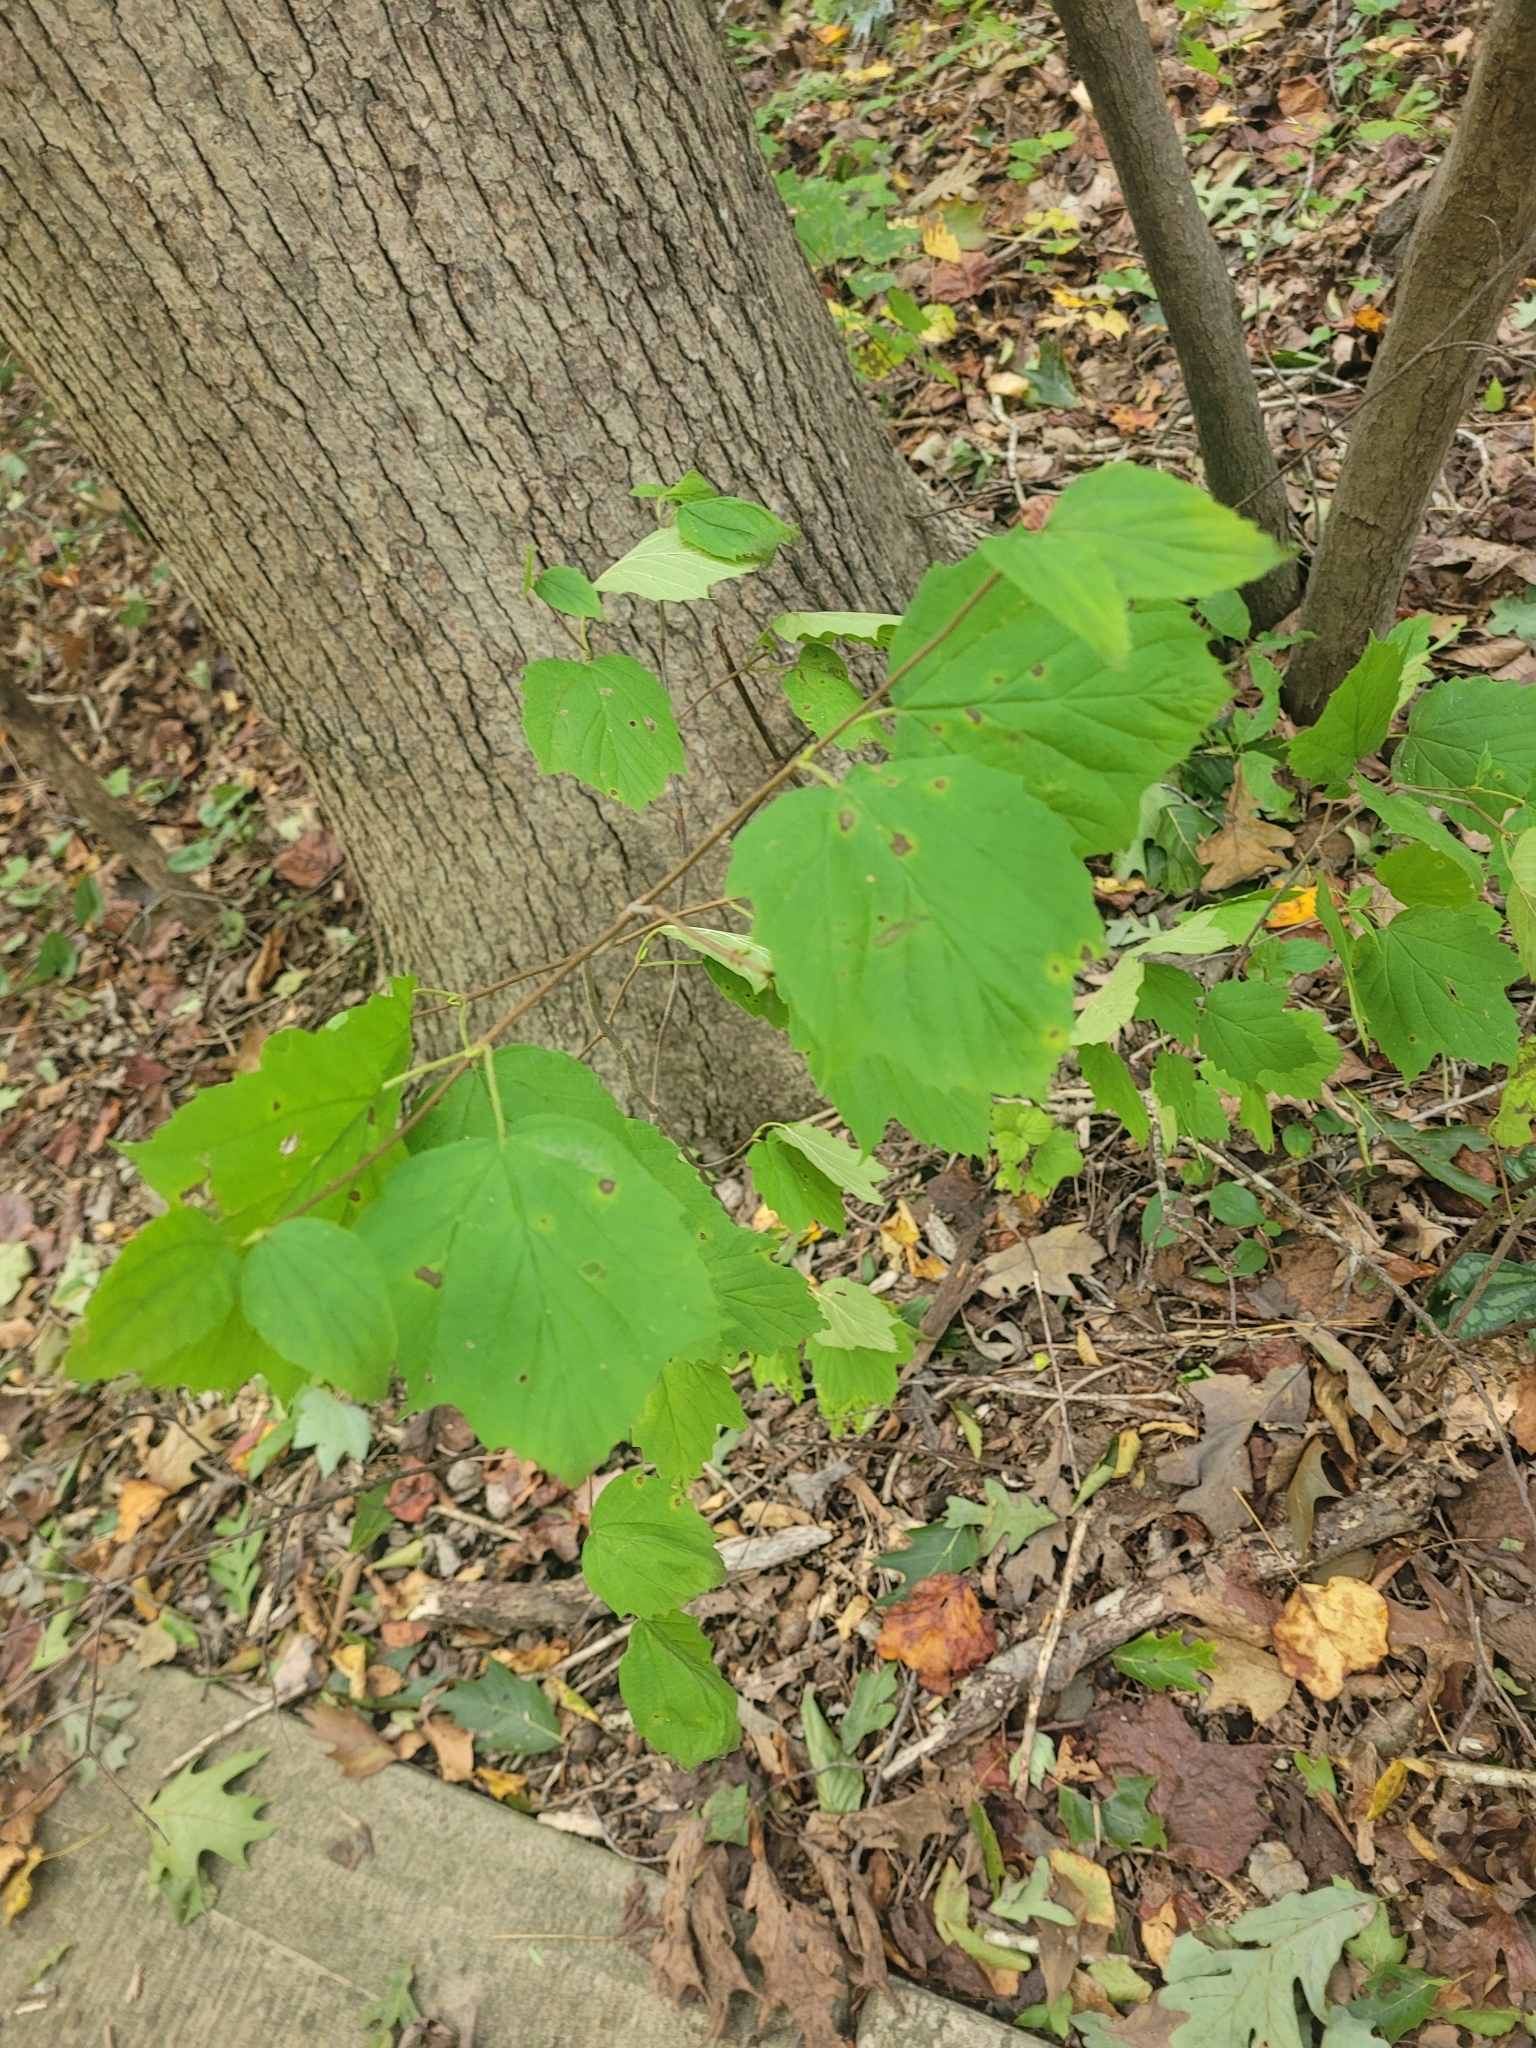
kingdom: Plantae
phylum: Tracheophyta
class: Magnoliopsida
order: Dipsacales
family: Viburnaceae
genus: Viburnum
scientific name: Viburnum acerifolium
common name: Dockmackie
